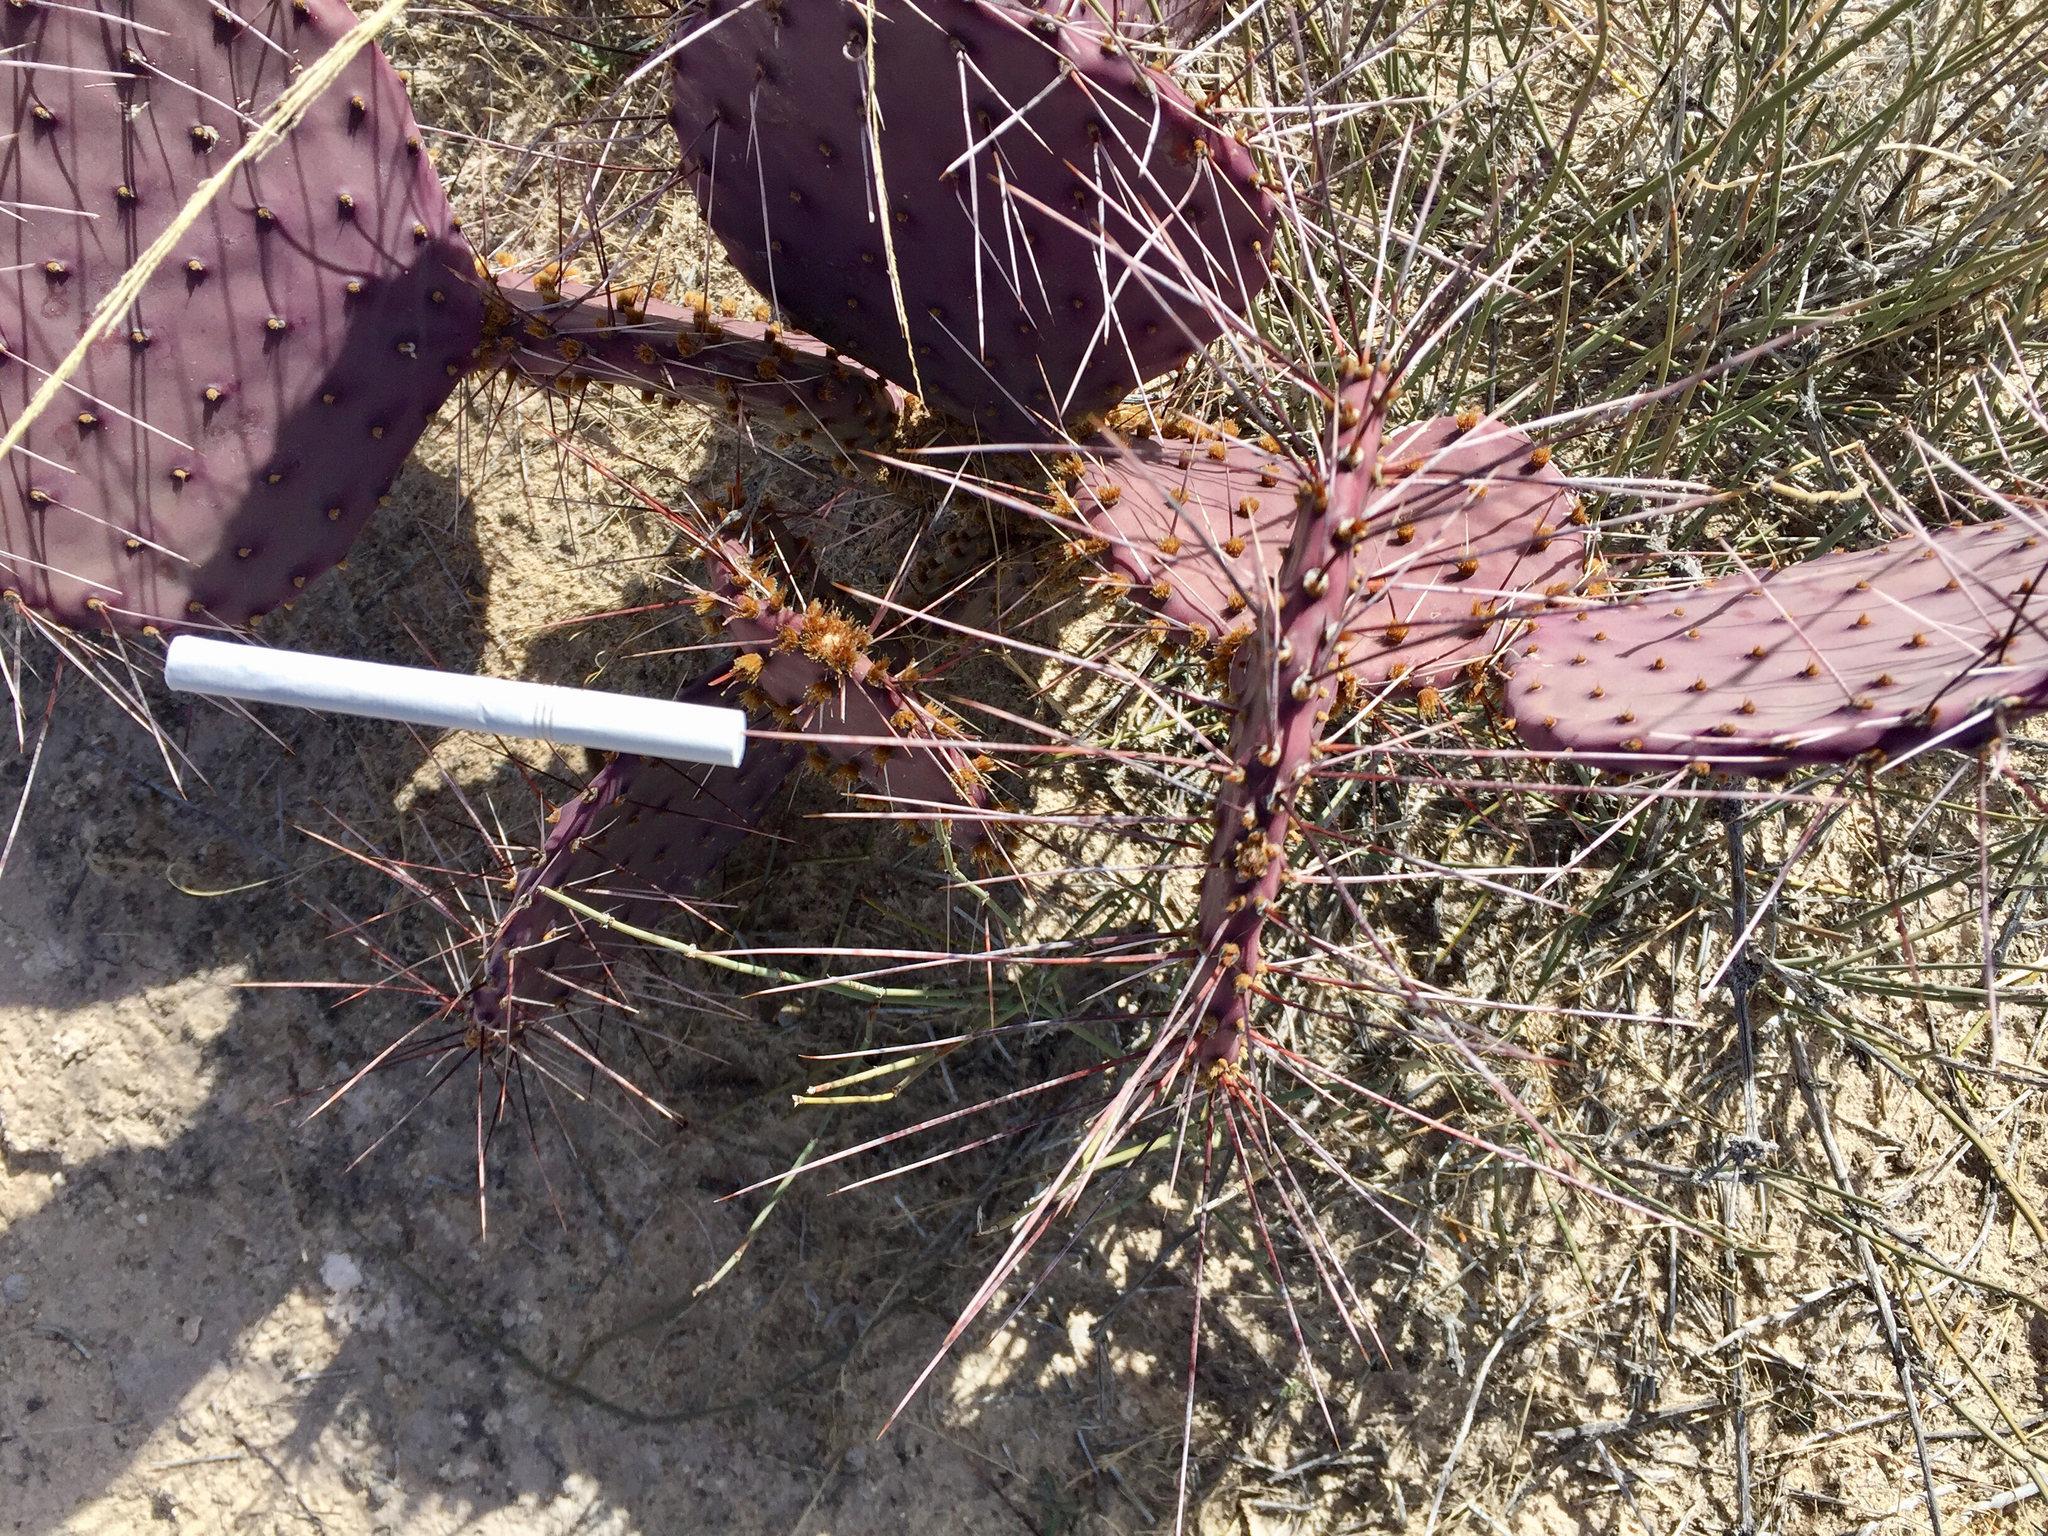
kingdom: Plantae
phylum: Tracheophyta
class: Magnoliopsida
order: Caryophyllales
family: Cactaceae
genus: Opuntia
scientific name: Opuntia macrocentra
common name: Purple prickly-pear
